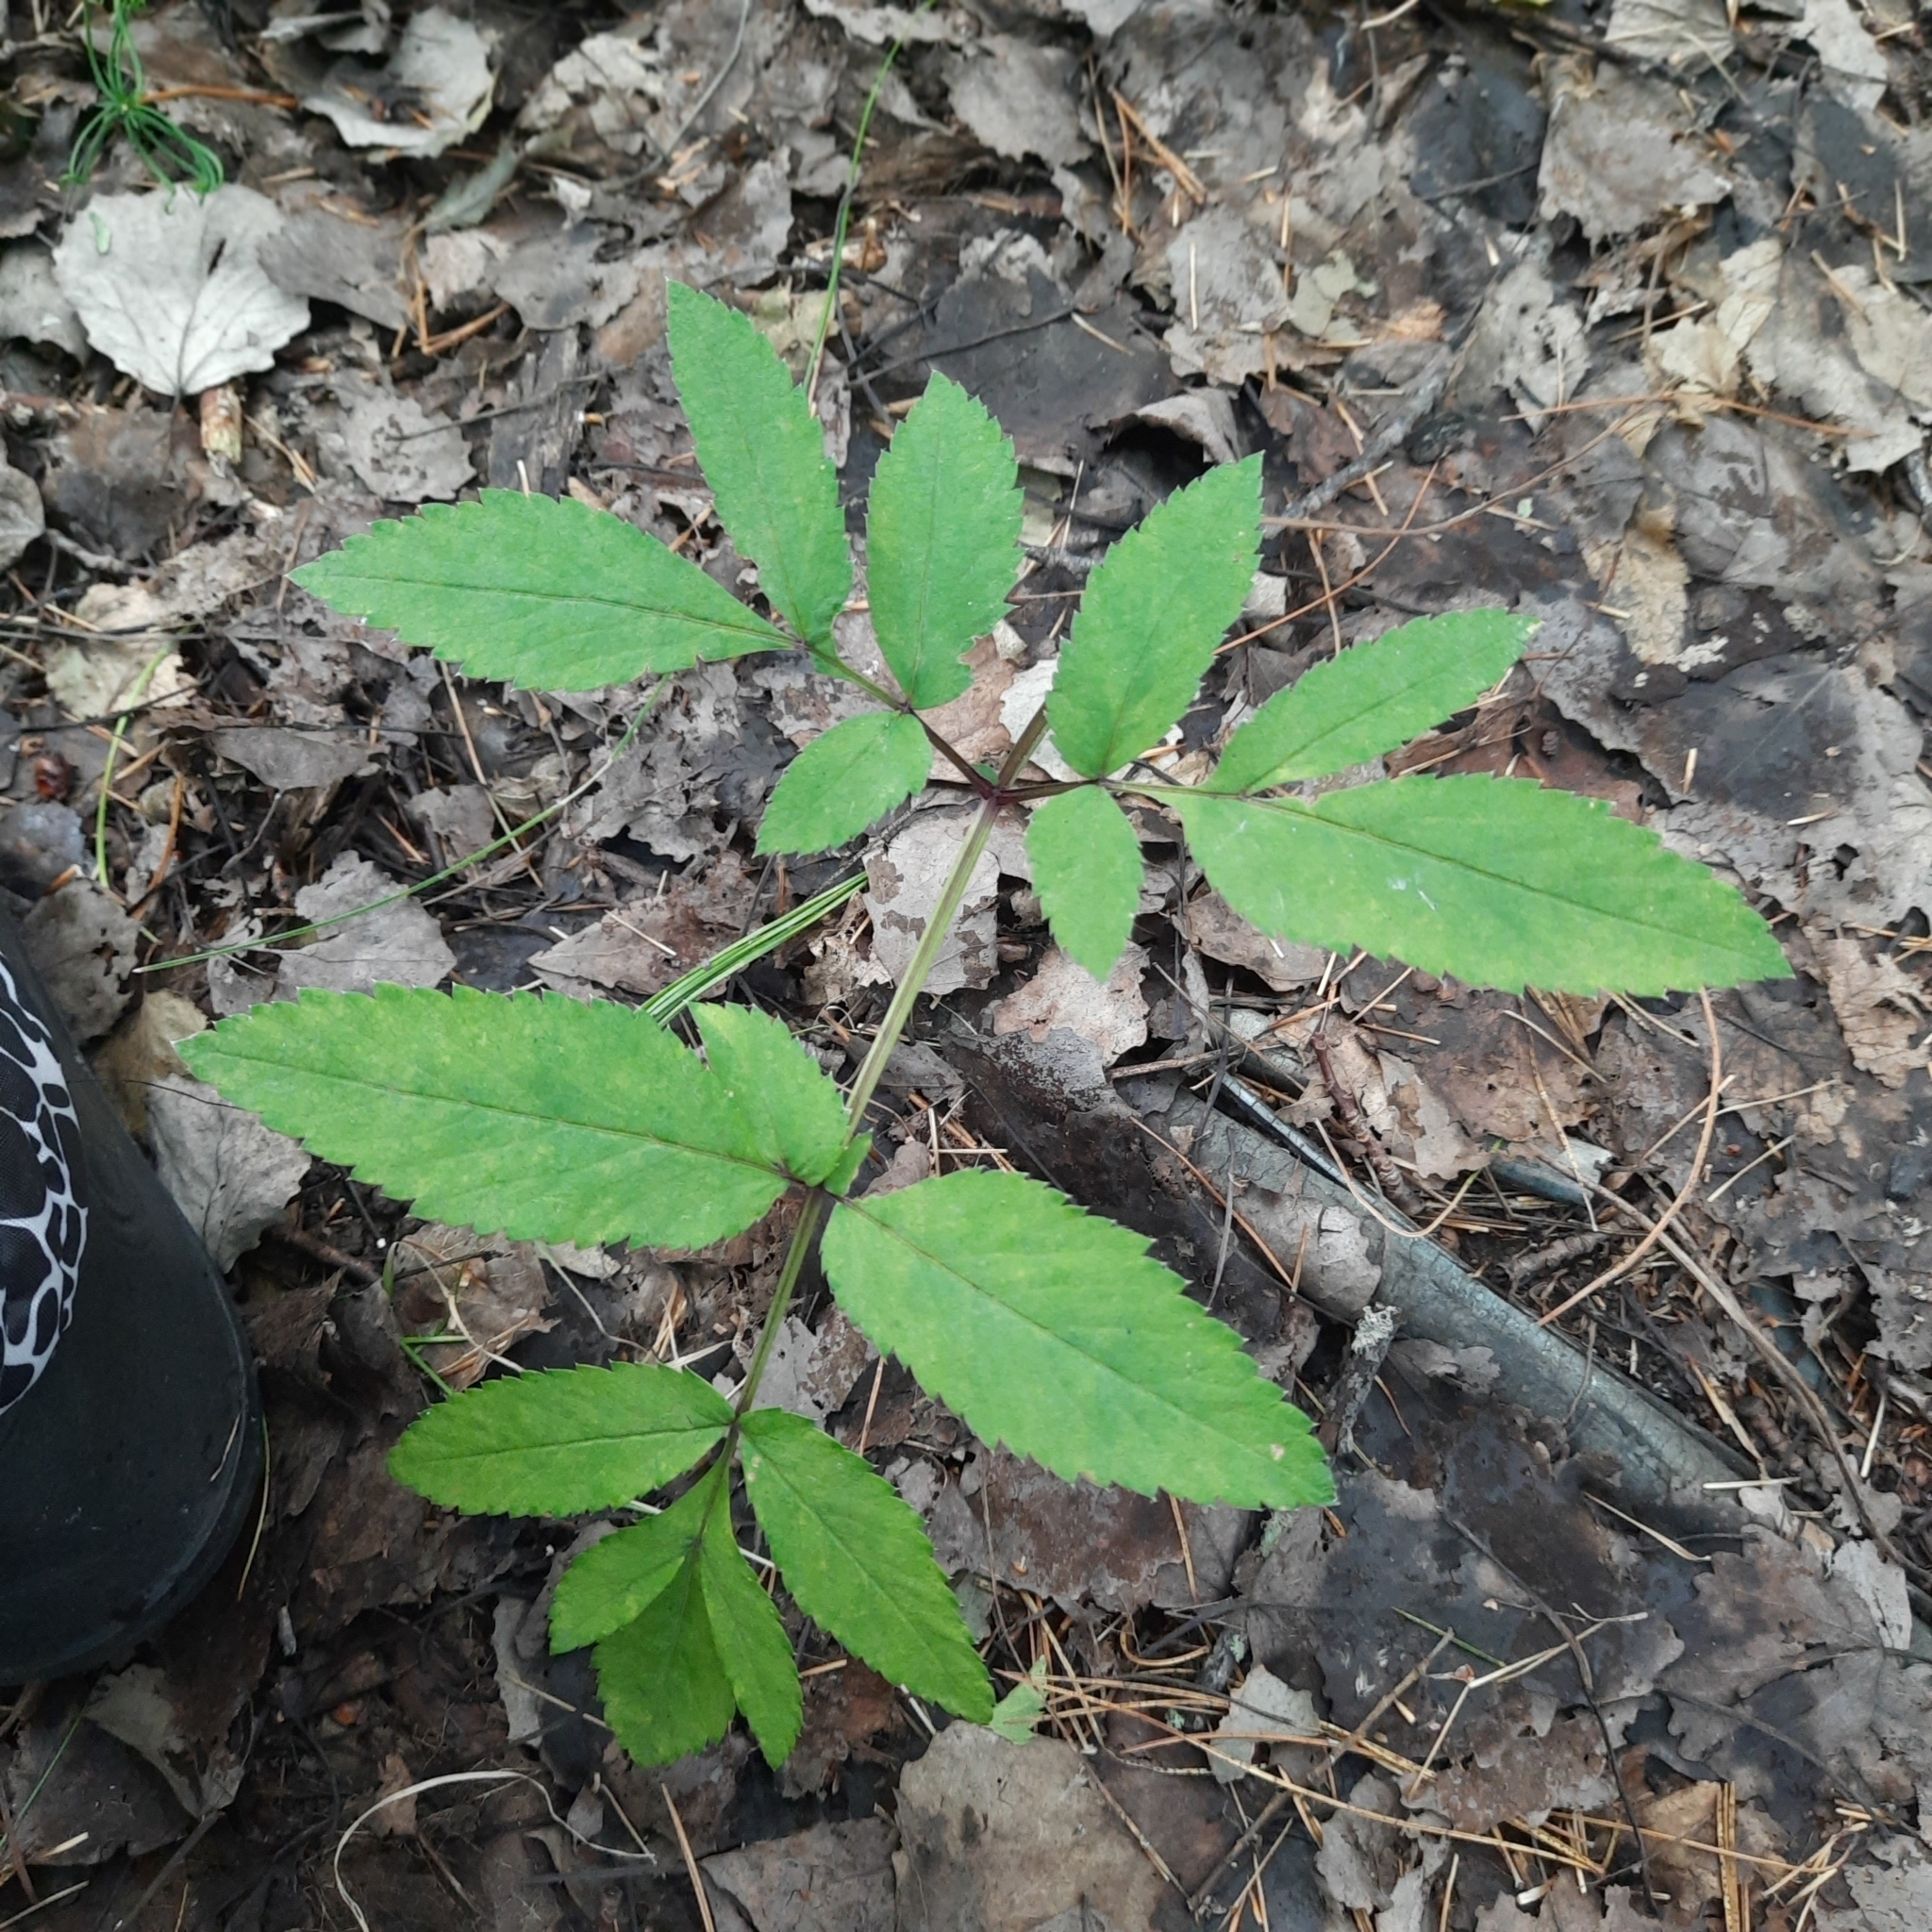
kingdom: Plantae
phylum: Tracheophyta
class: Magnoliopsida
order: Apiales
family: Apiaceae
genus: Angelica
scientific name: Angelica sylvestris
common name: Wild angelica
